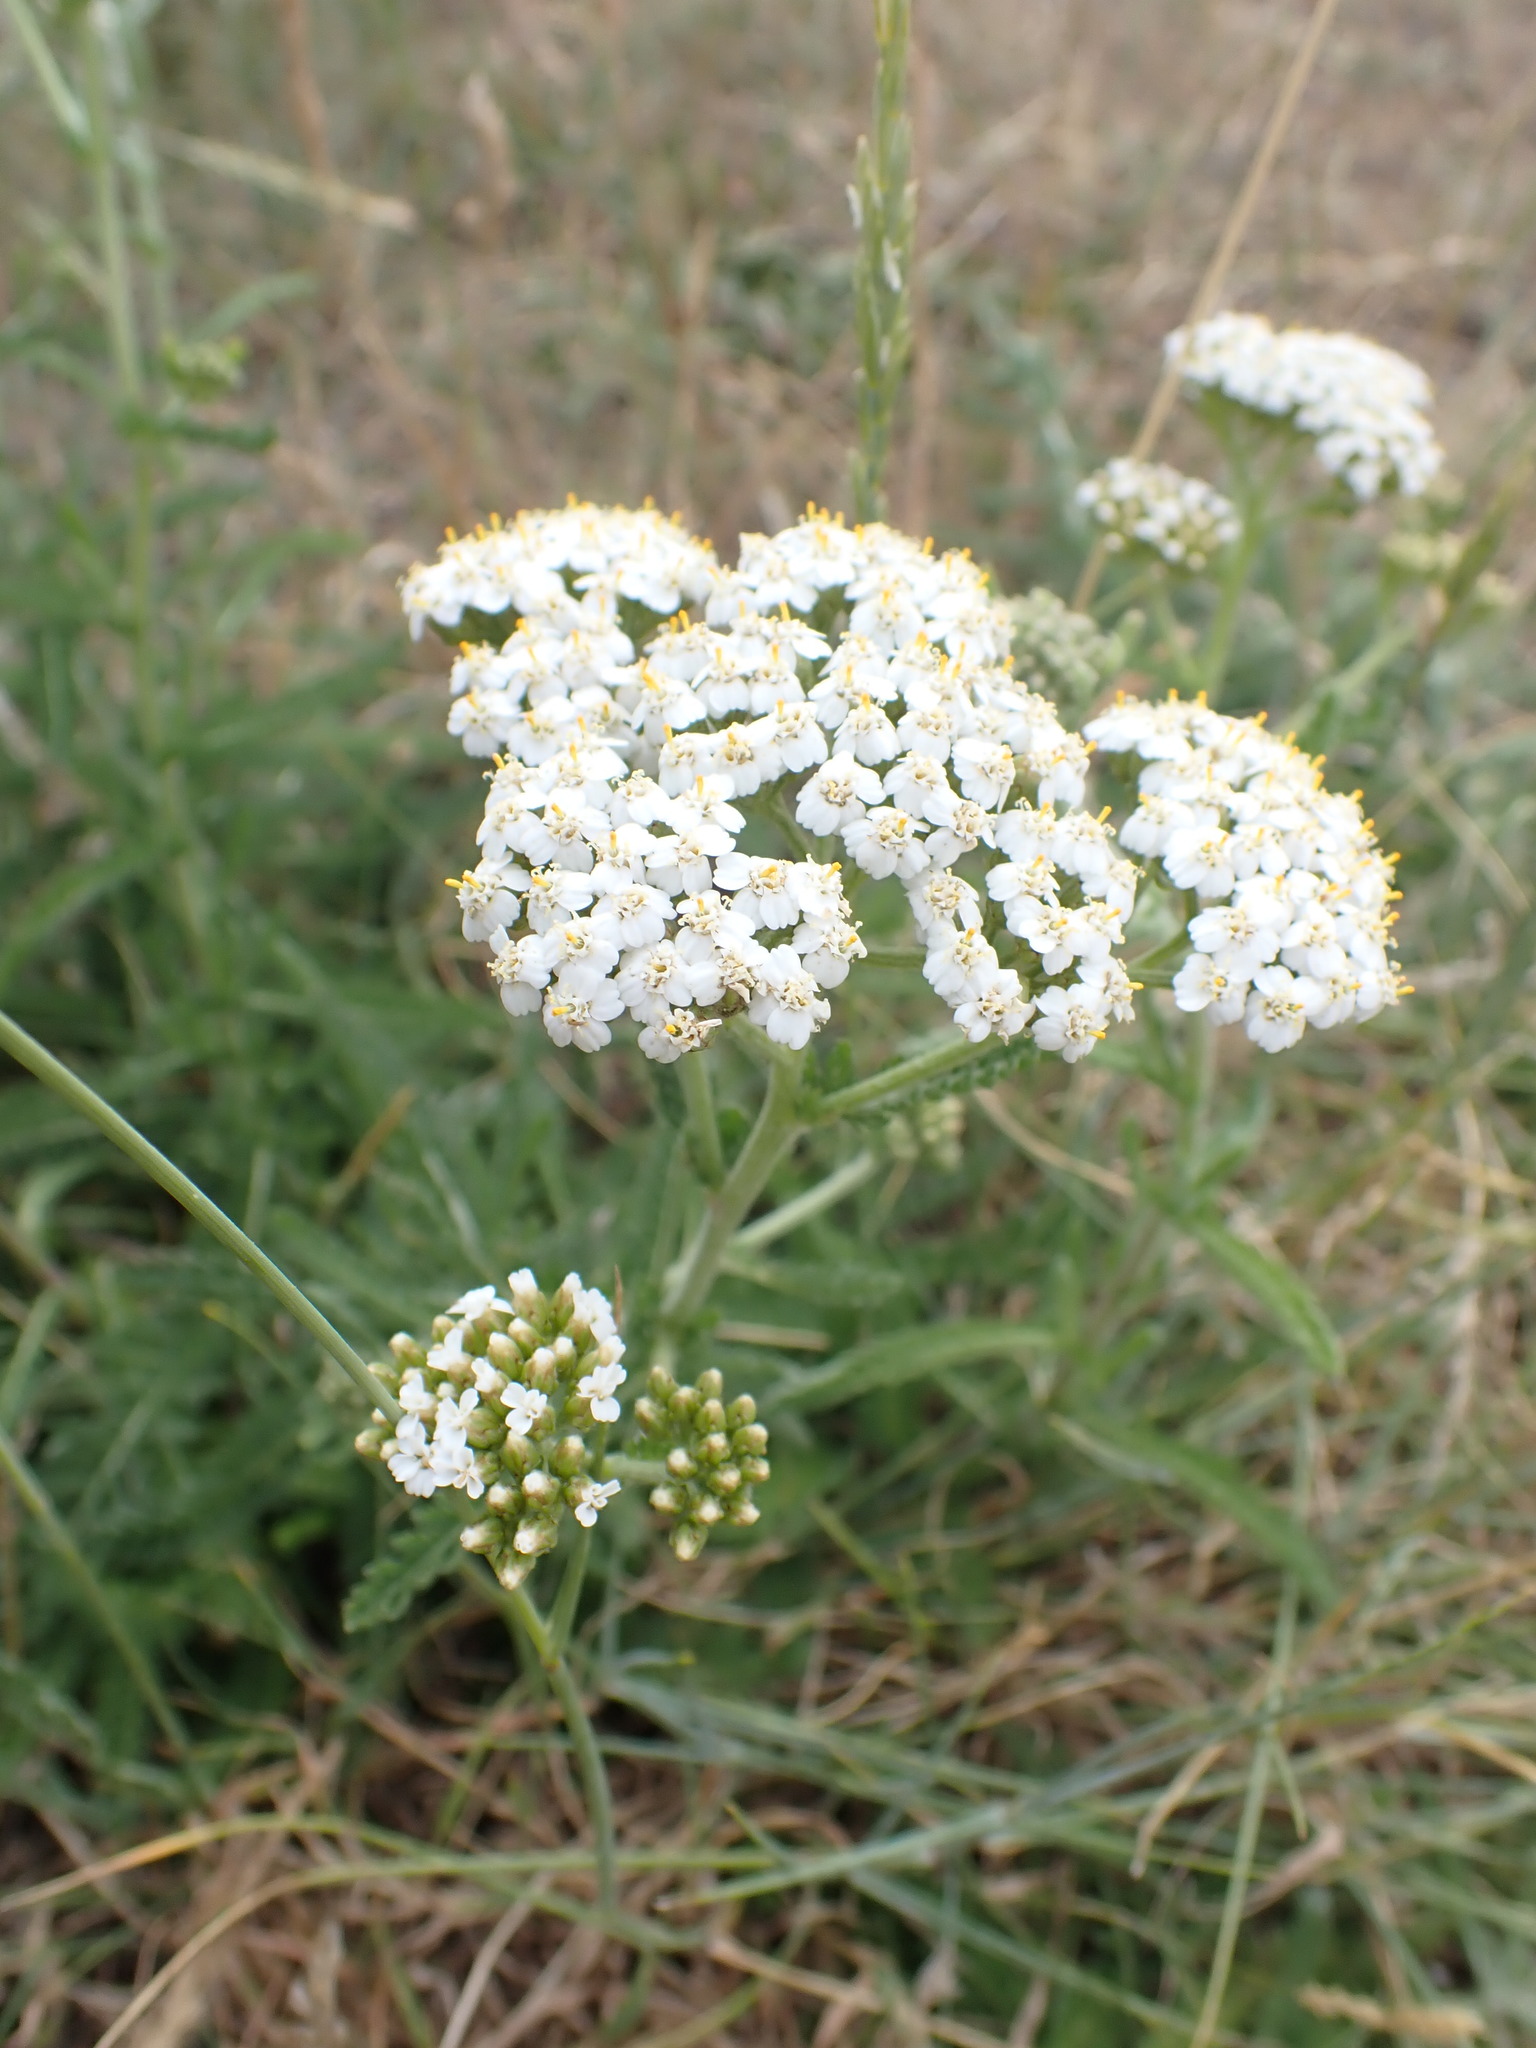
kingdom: Plantae
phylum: Tracheophyta
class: Magnoliopsida
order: Asterales
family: Asteraceae
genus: Achillea
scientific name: Achillea millefolium
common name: Yarrow
